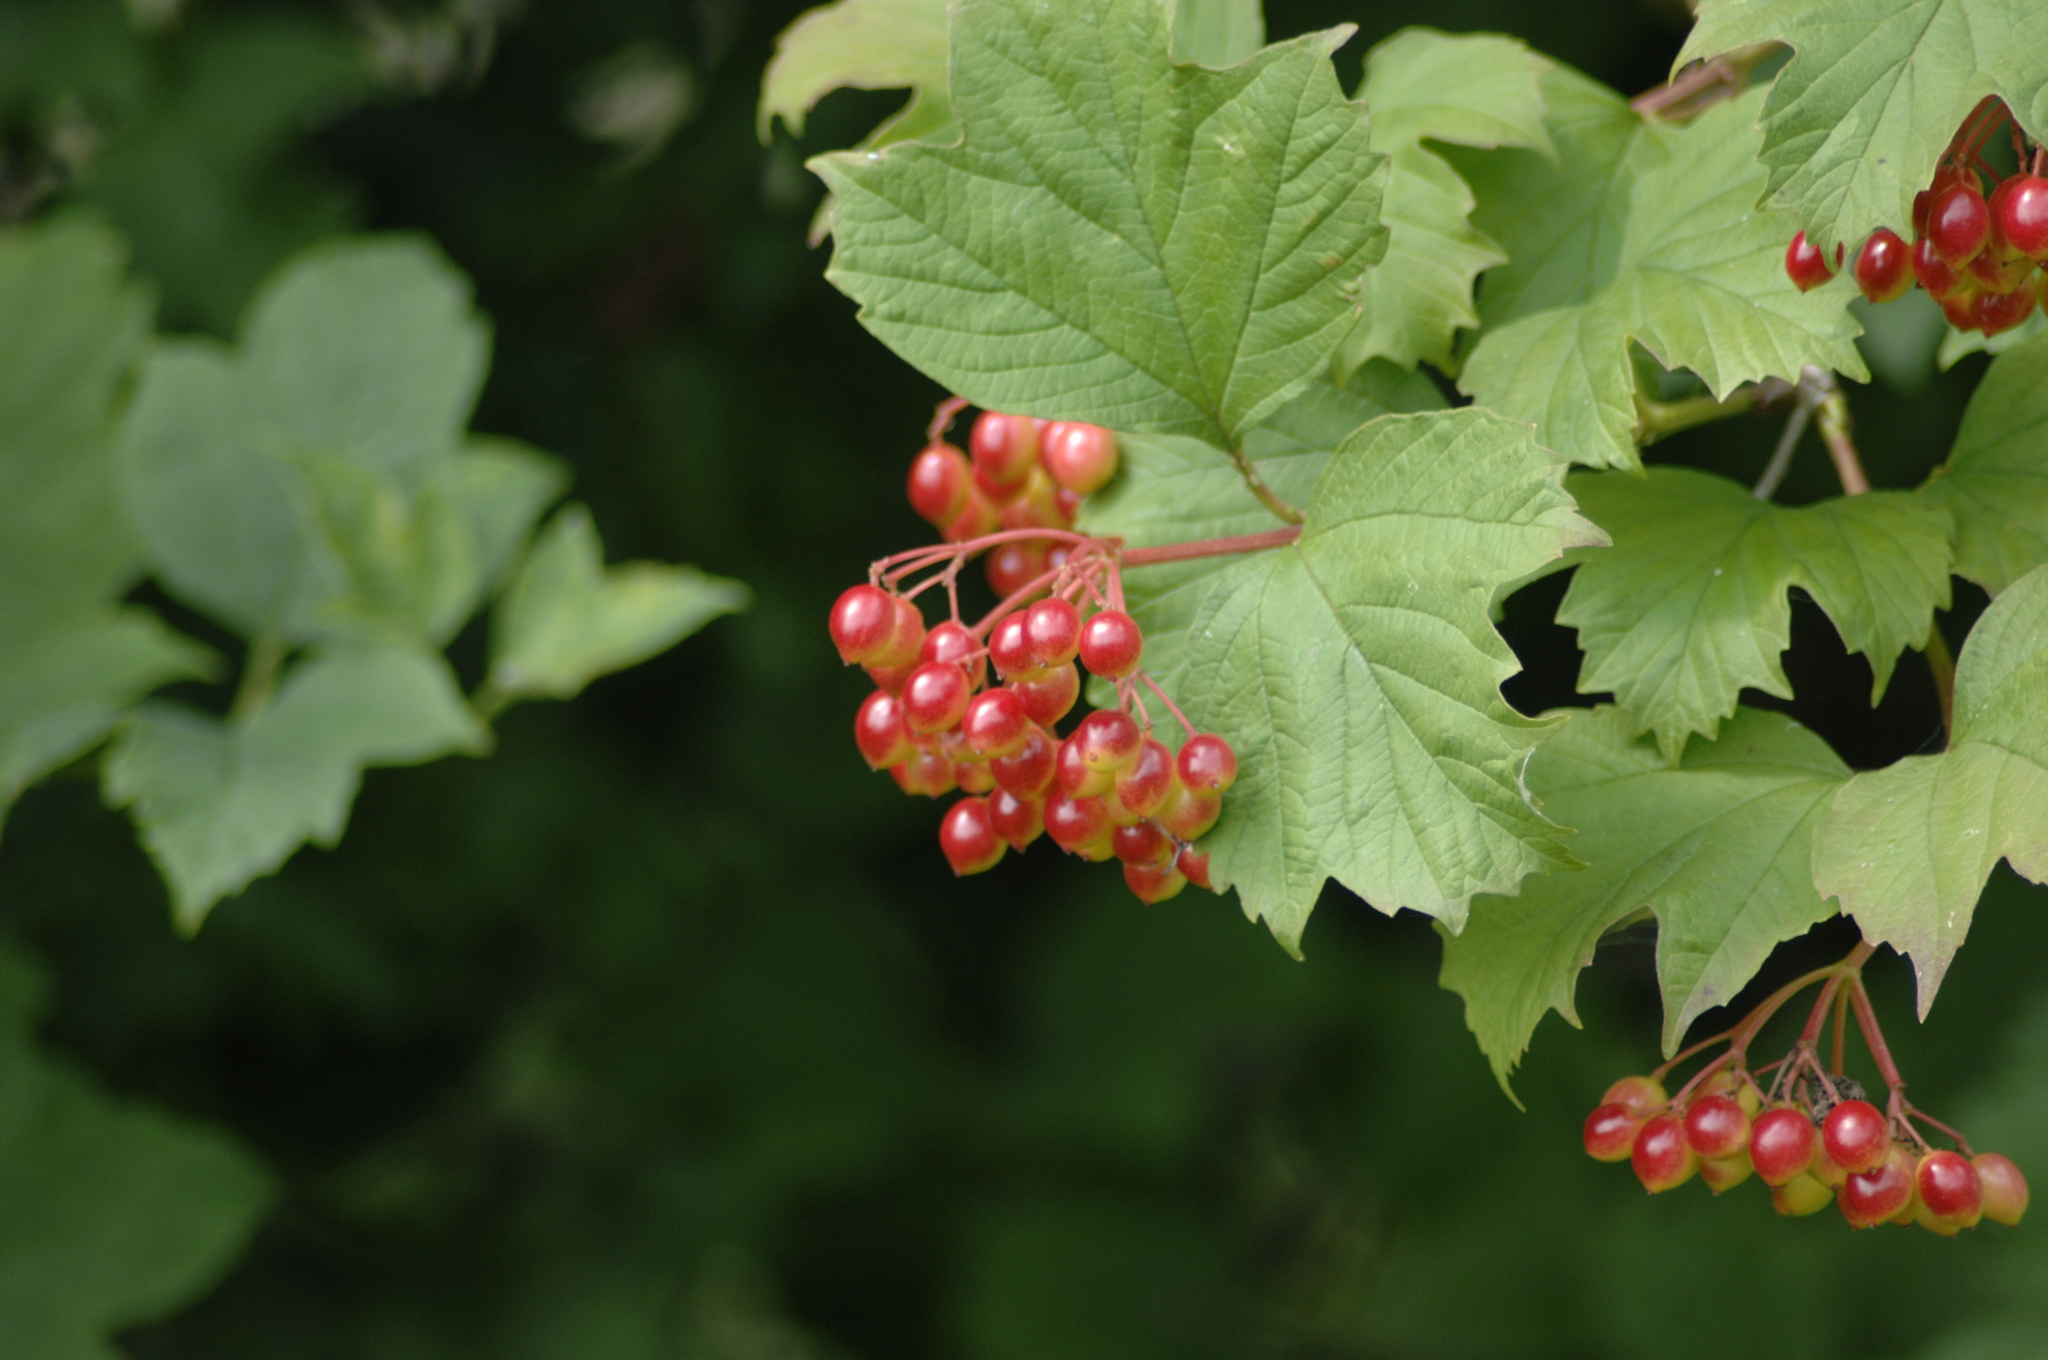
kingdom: Plantae
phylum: Tracheophyta
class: Magnoliopsida
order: Dipsacales
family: Viburnaceae
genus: Viburnum
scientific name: Viburnum opulus
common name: Guelder-rose
